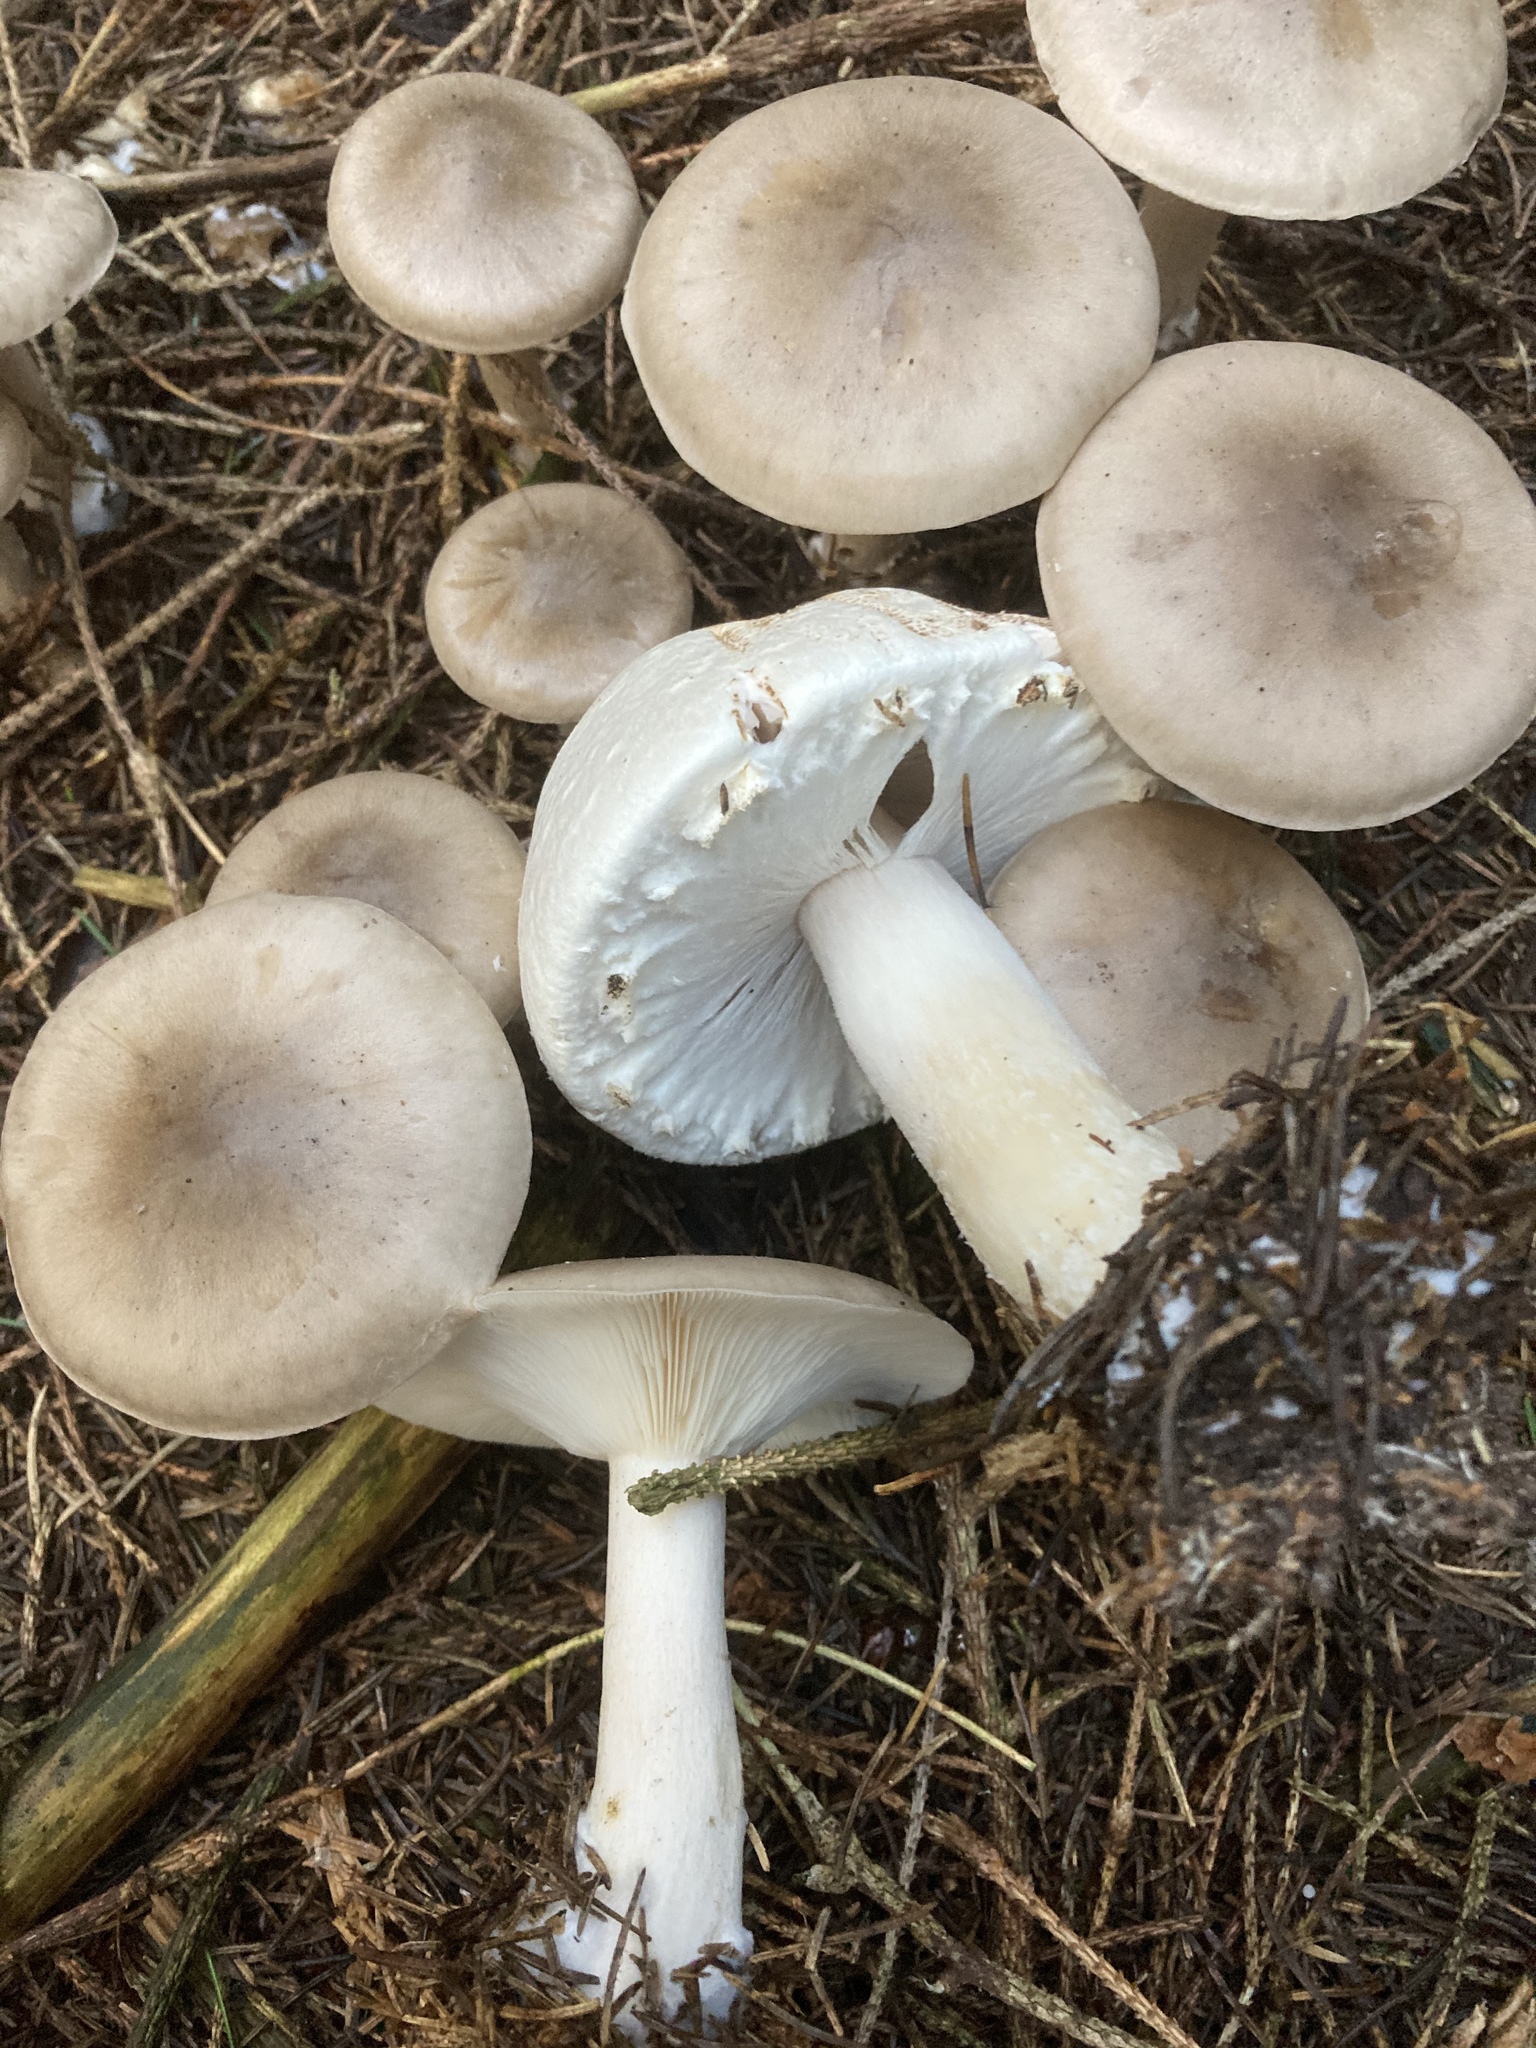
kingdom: Fungi
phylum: Basidiomycota
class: Agaricomycetes
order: Agaricales
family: Tricholomataceae
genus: Clitocybe
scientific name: Clitocybe nebularis
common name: Clouded agaric
